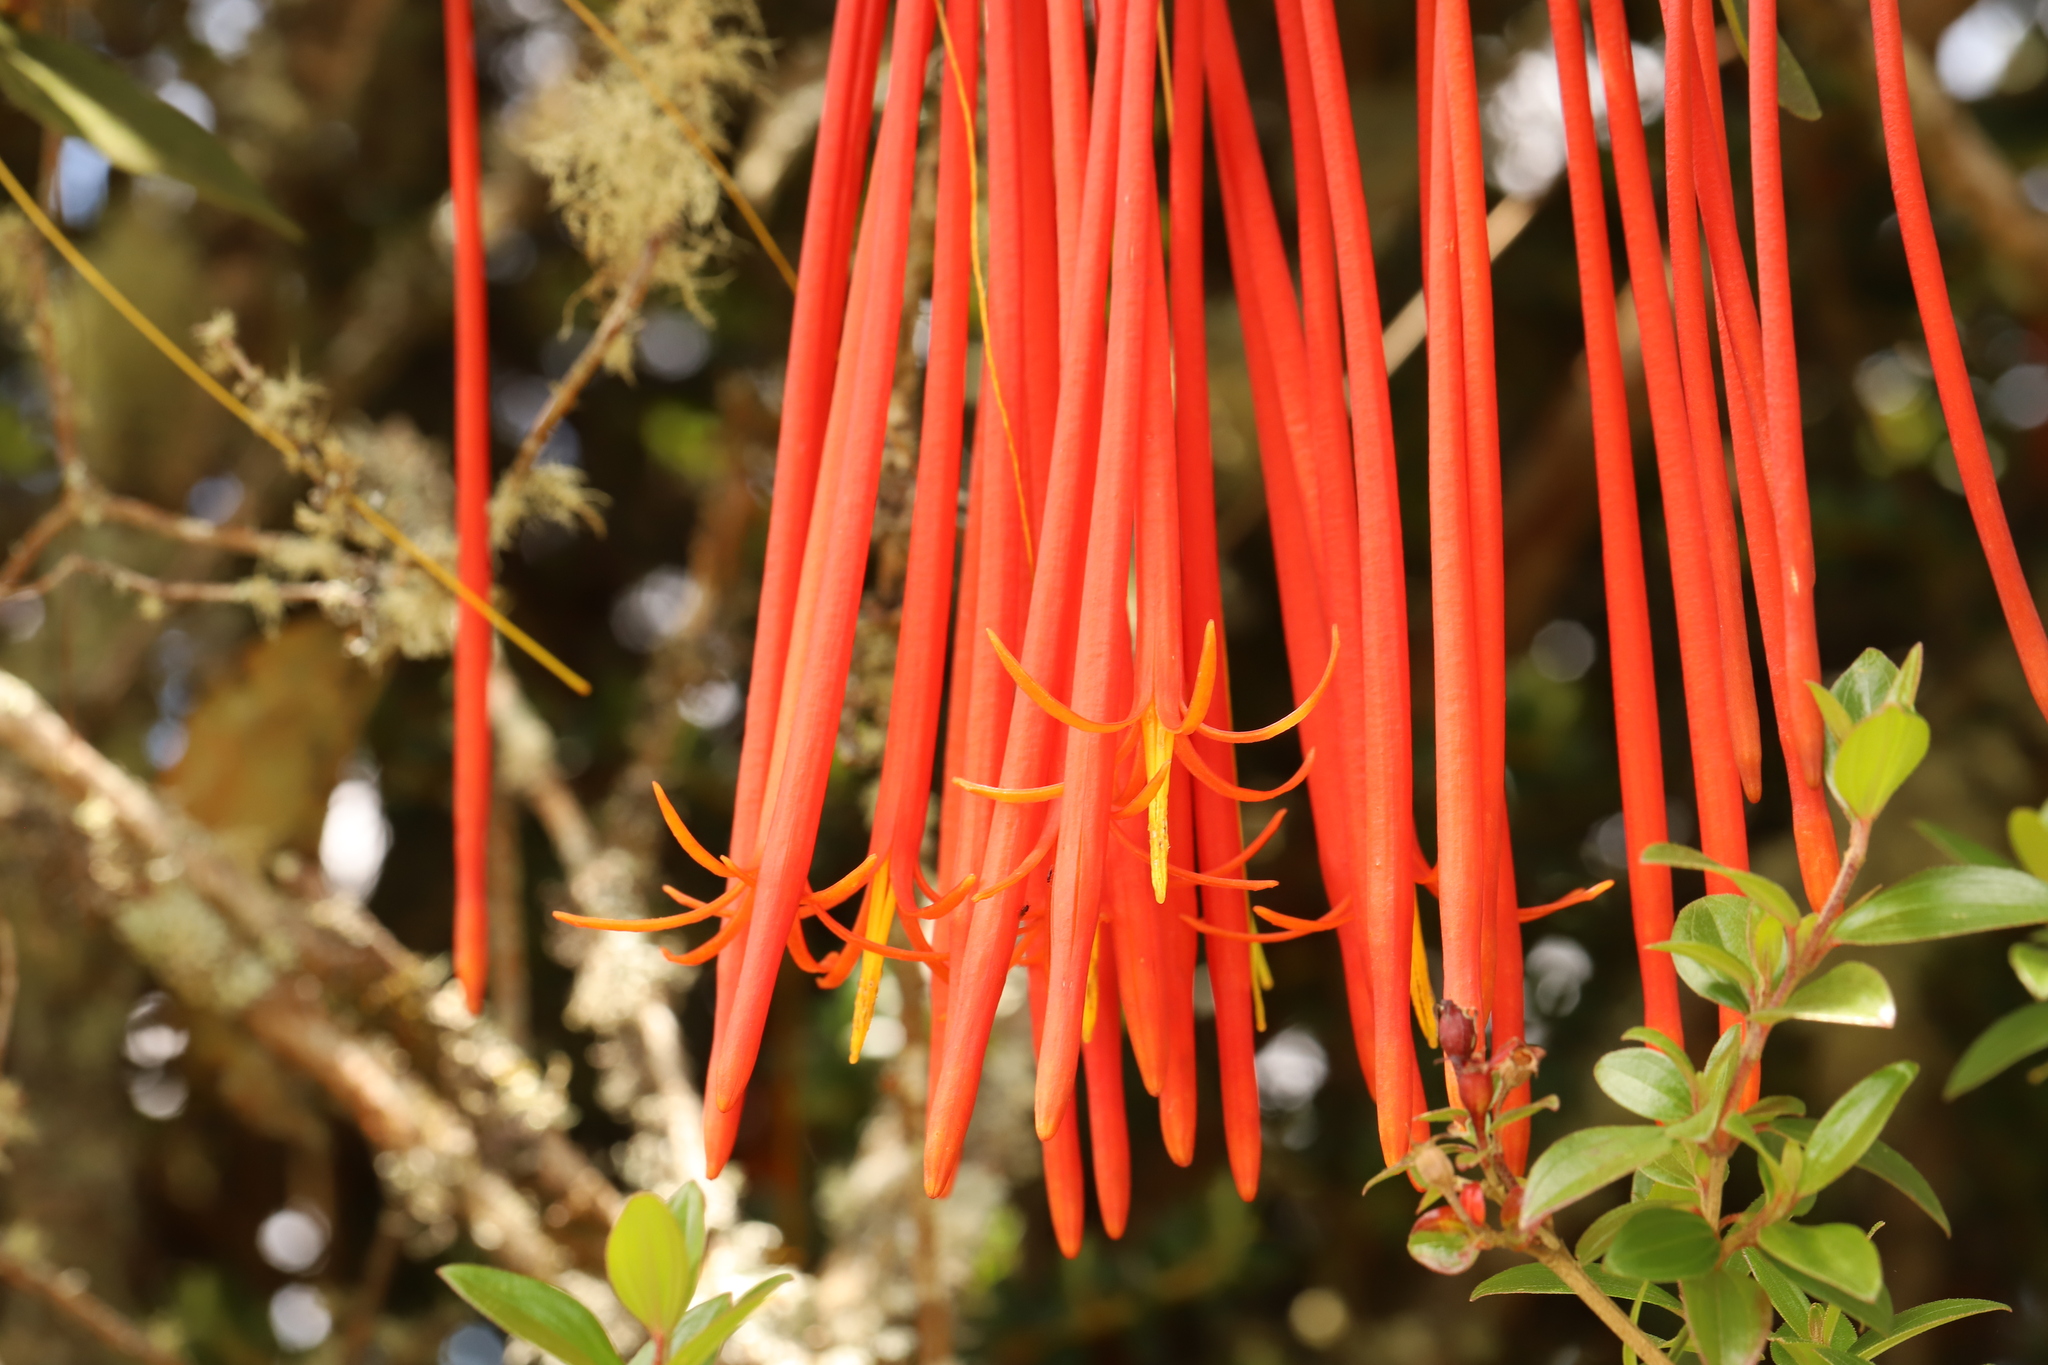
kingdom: Plantae
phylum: Tracheophyta
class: Magnoliopsida
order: Santalales
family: Loranthaceae
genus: Aetanthus
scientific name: Aetanthus mutisii
